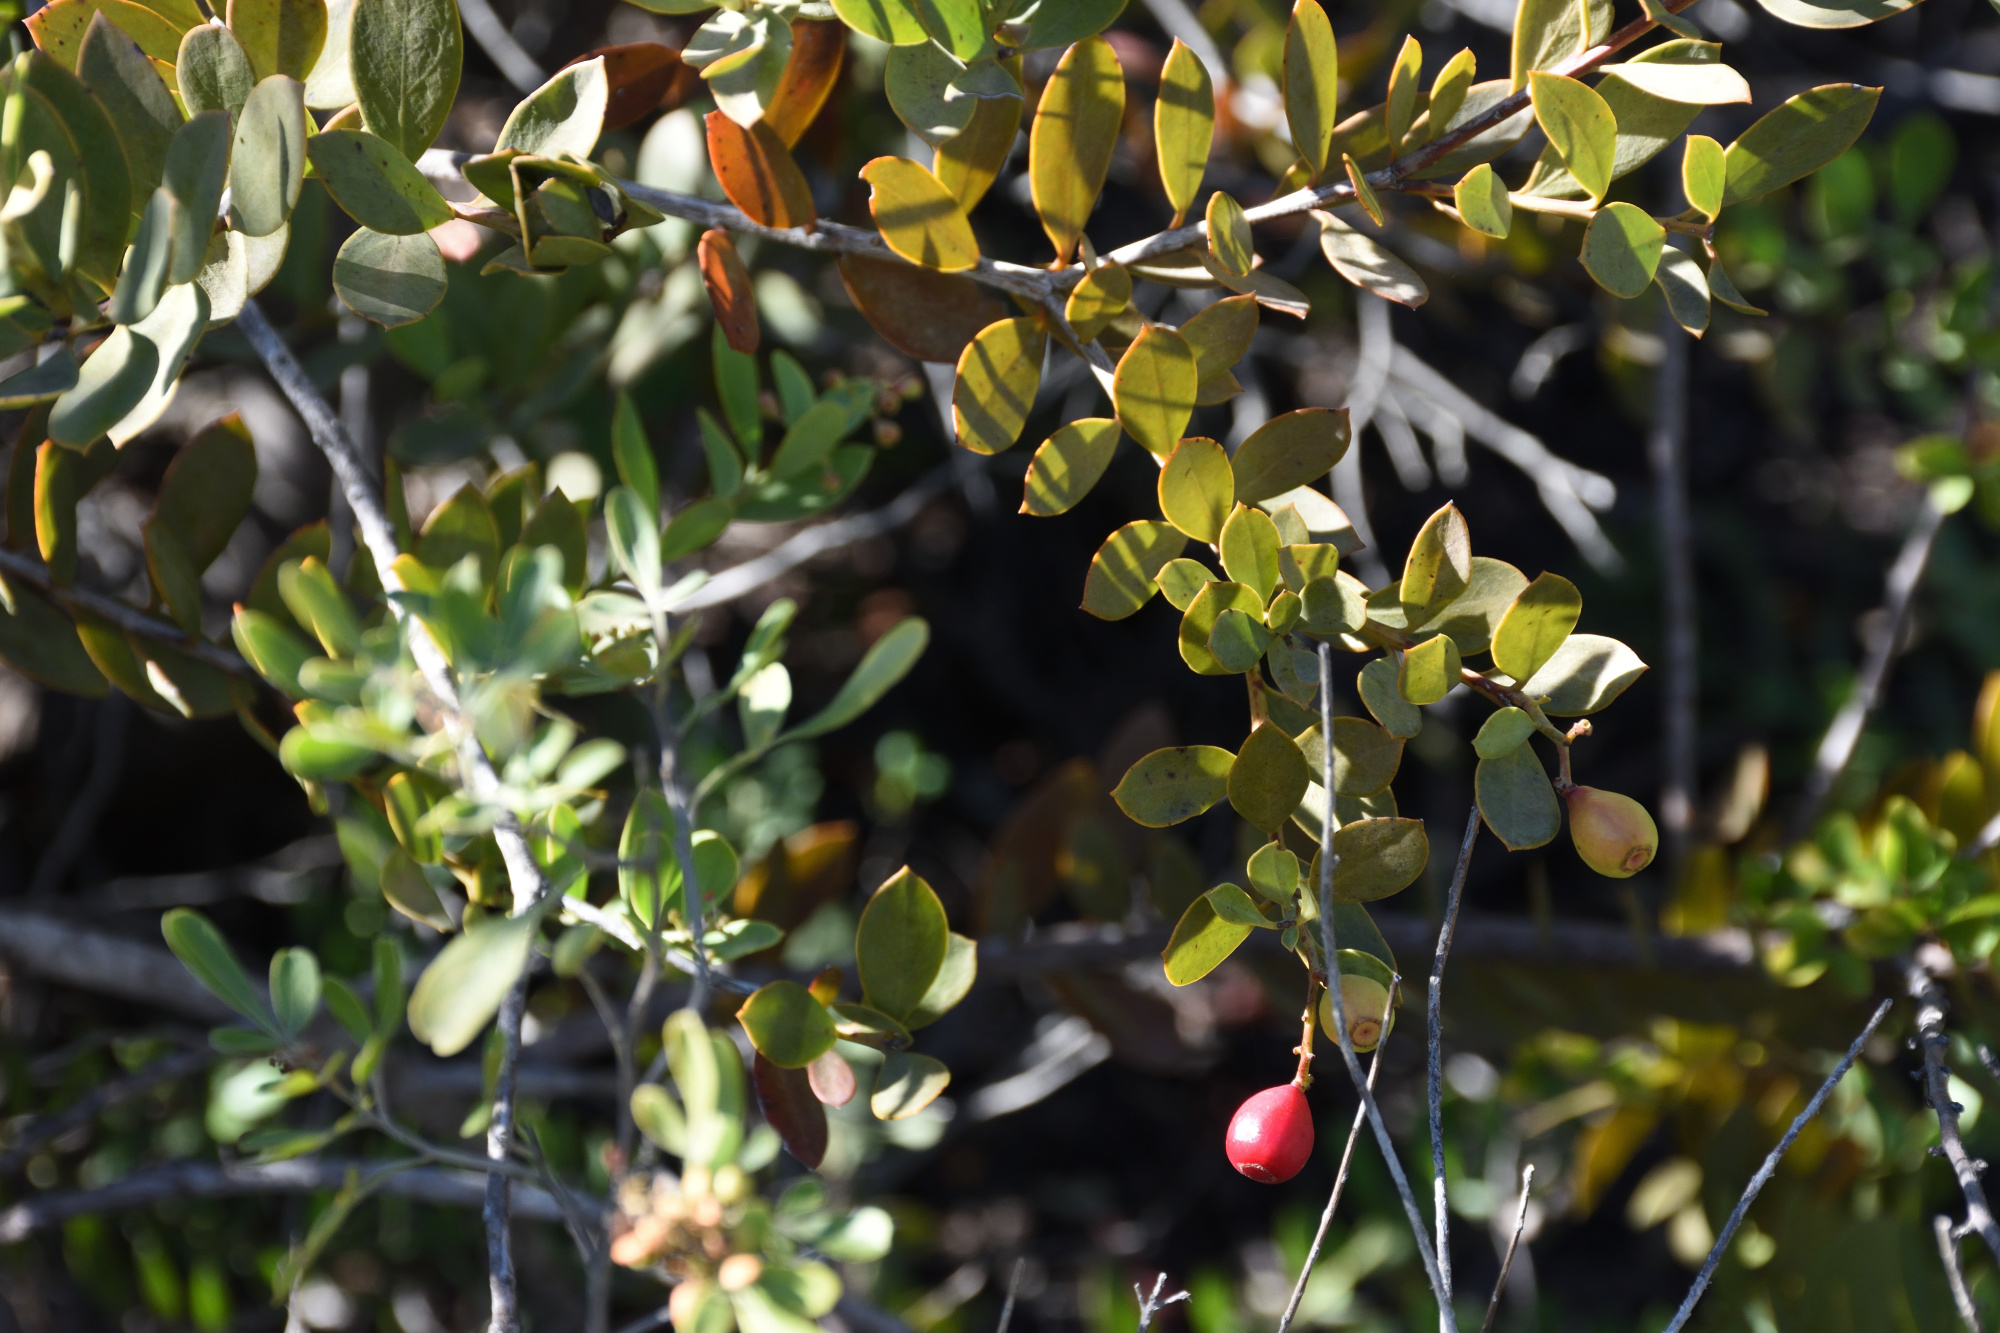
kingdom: Plantae
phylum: Tracheophyta
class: Magnoliopsida
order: Santalales
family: Santalaceae
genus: Osyris
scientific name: Osyris compressa
